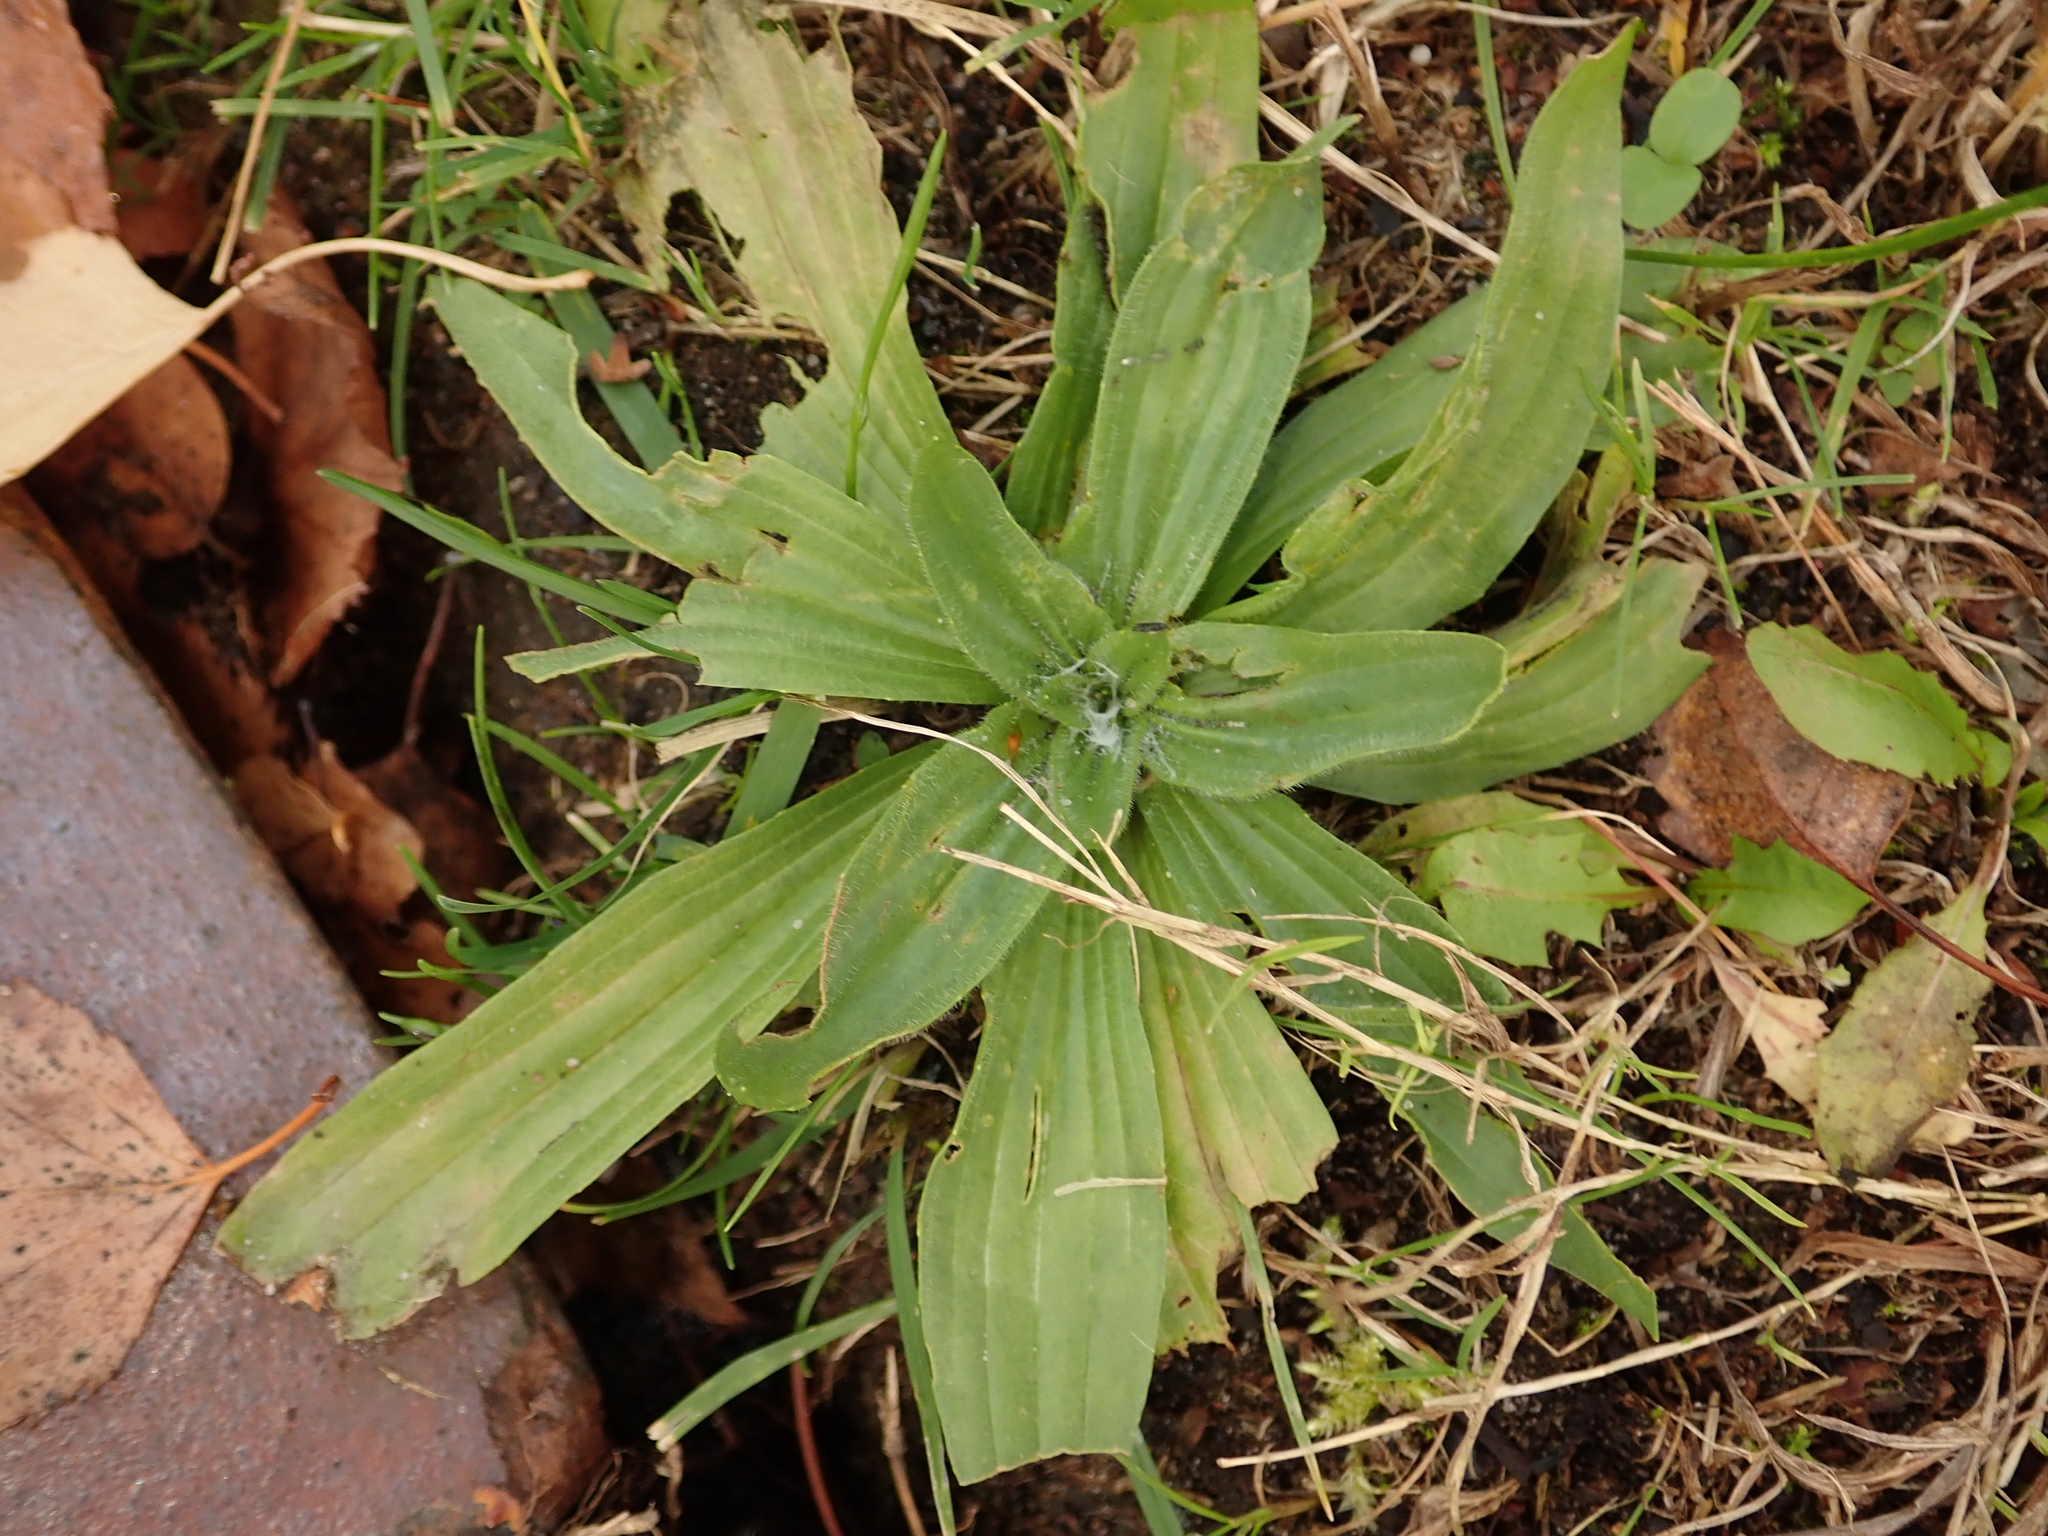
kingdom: Plantae
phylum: Tracheophyta
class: Magnoliopsida
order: Lamiales
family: Plantaginaceae
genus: Plantago
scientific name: Plantago lanceolata
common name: Ribwort plantain
